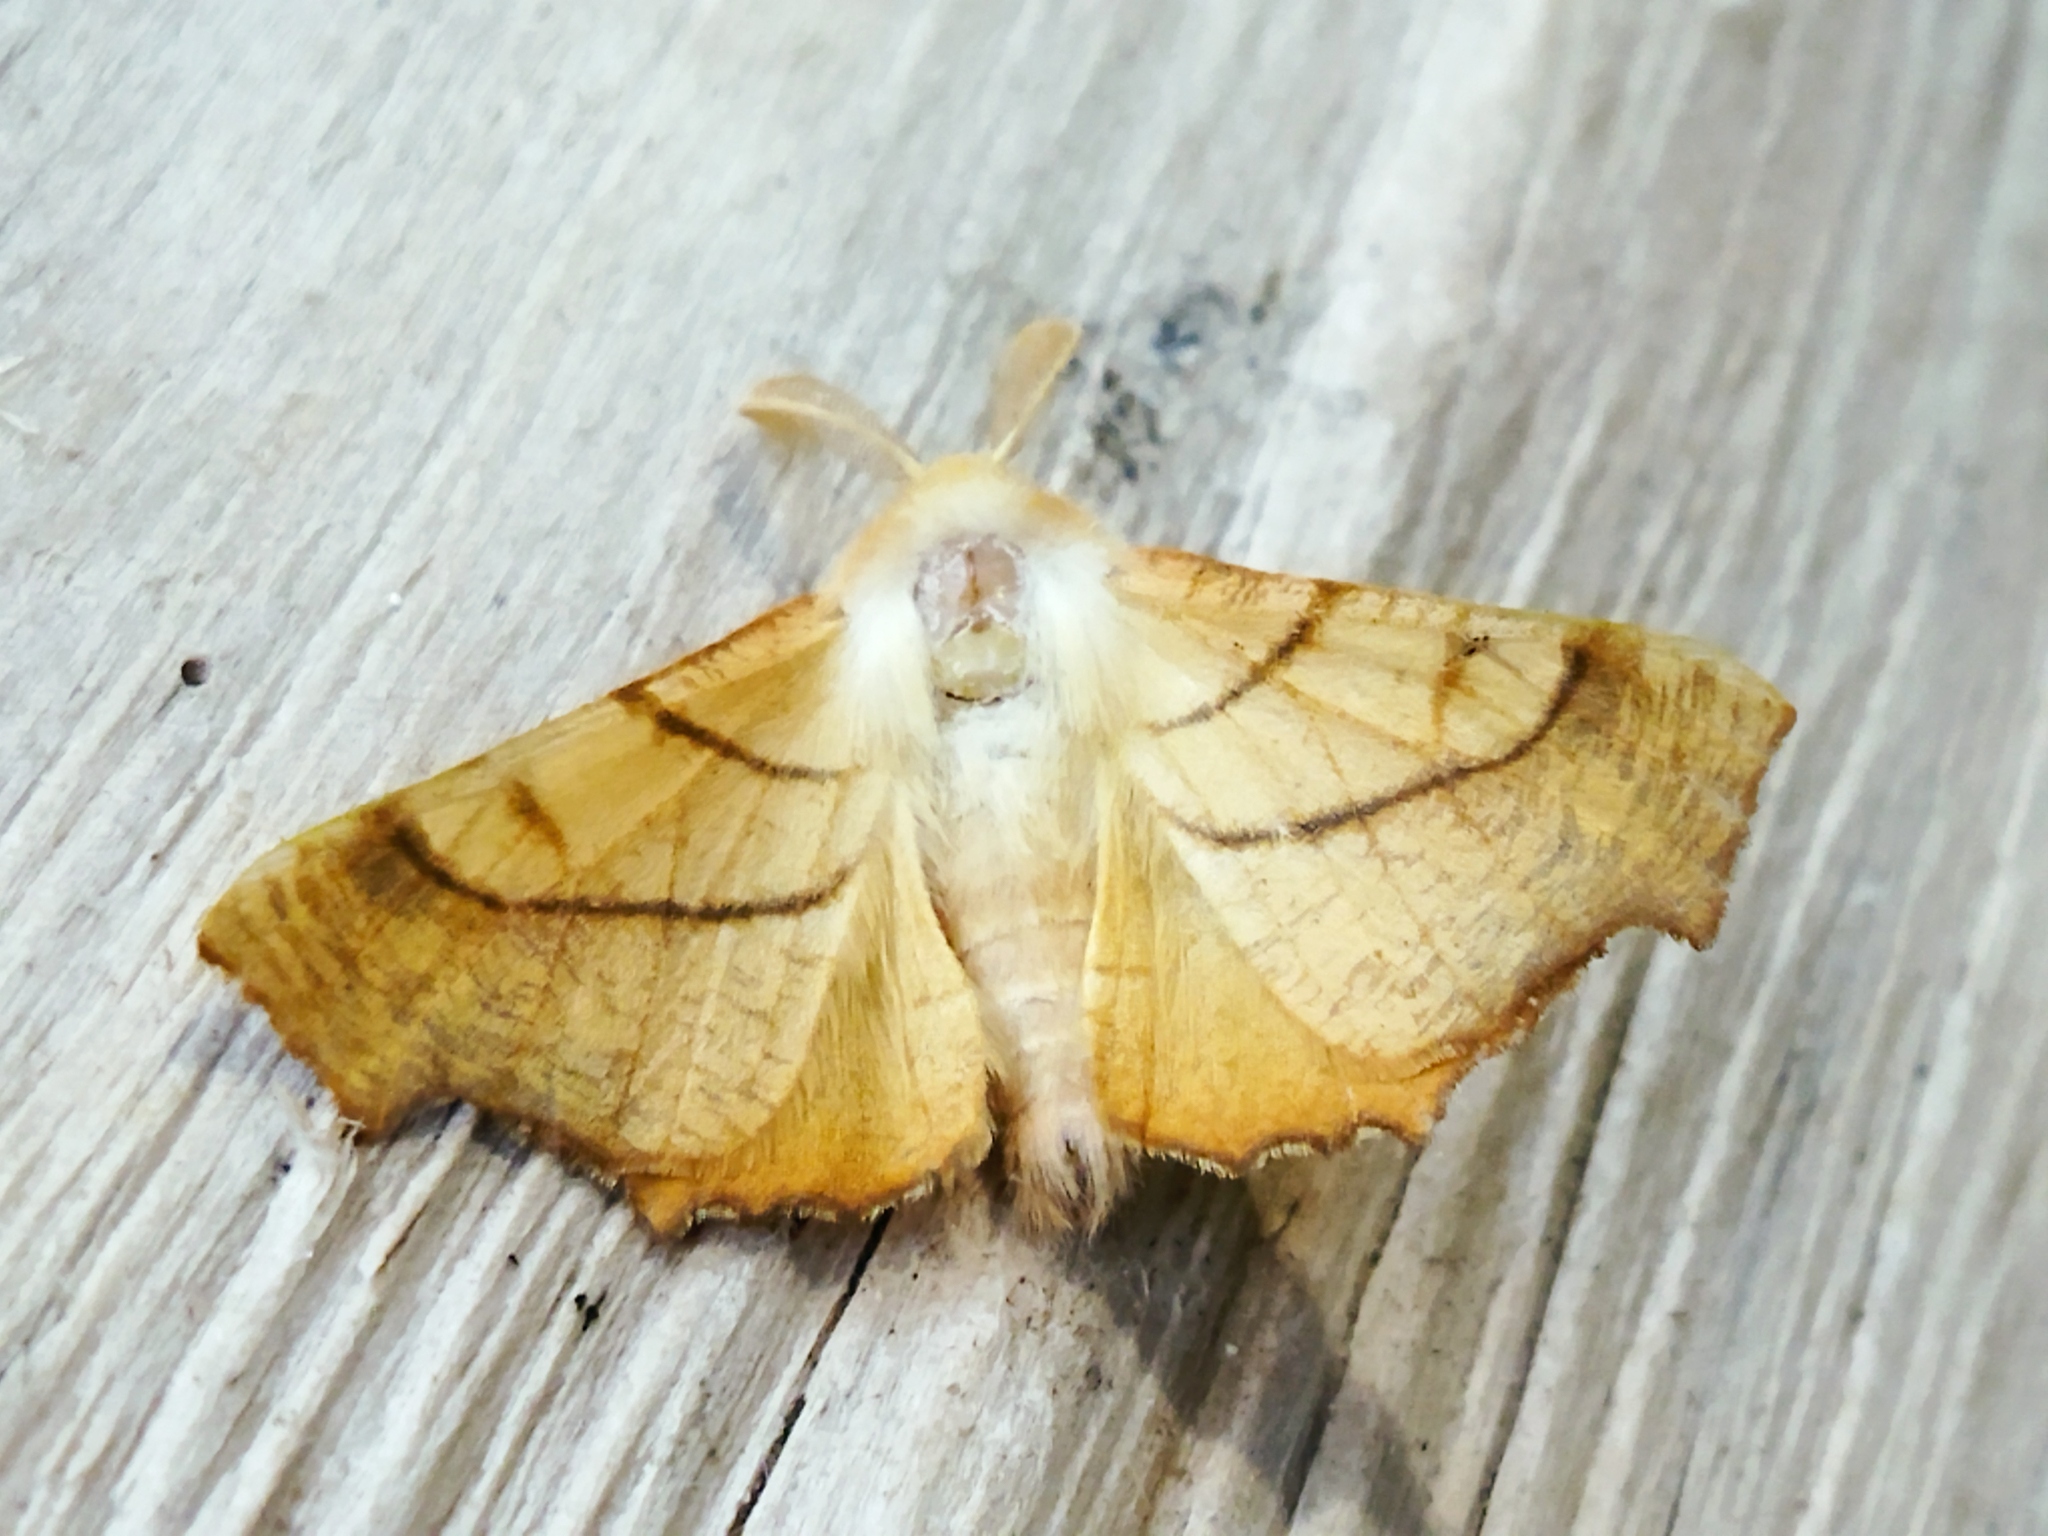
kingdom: Animalia
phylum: Arthropoda
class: Insecta
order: Lepidoptera
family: Geometridae
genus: Ennomos
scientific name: Ennomos fuscantaria
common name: Dusky thorn
